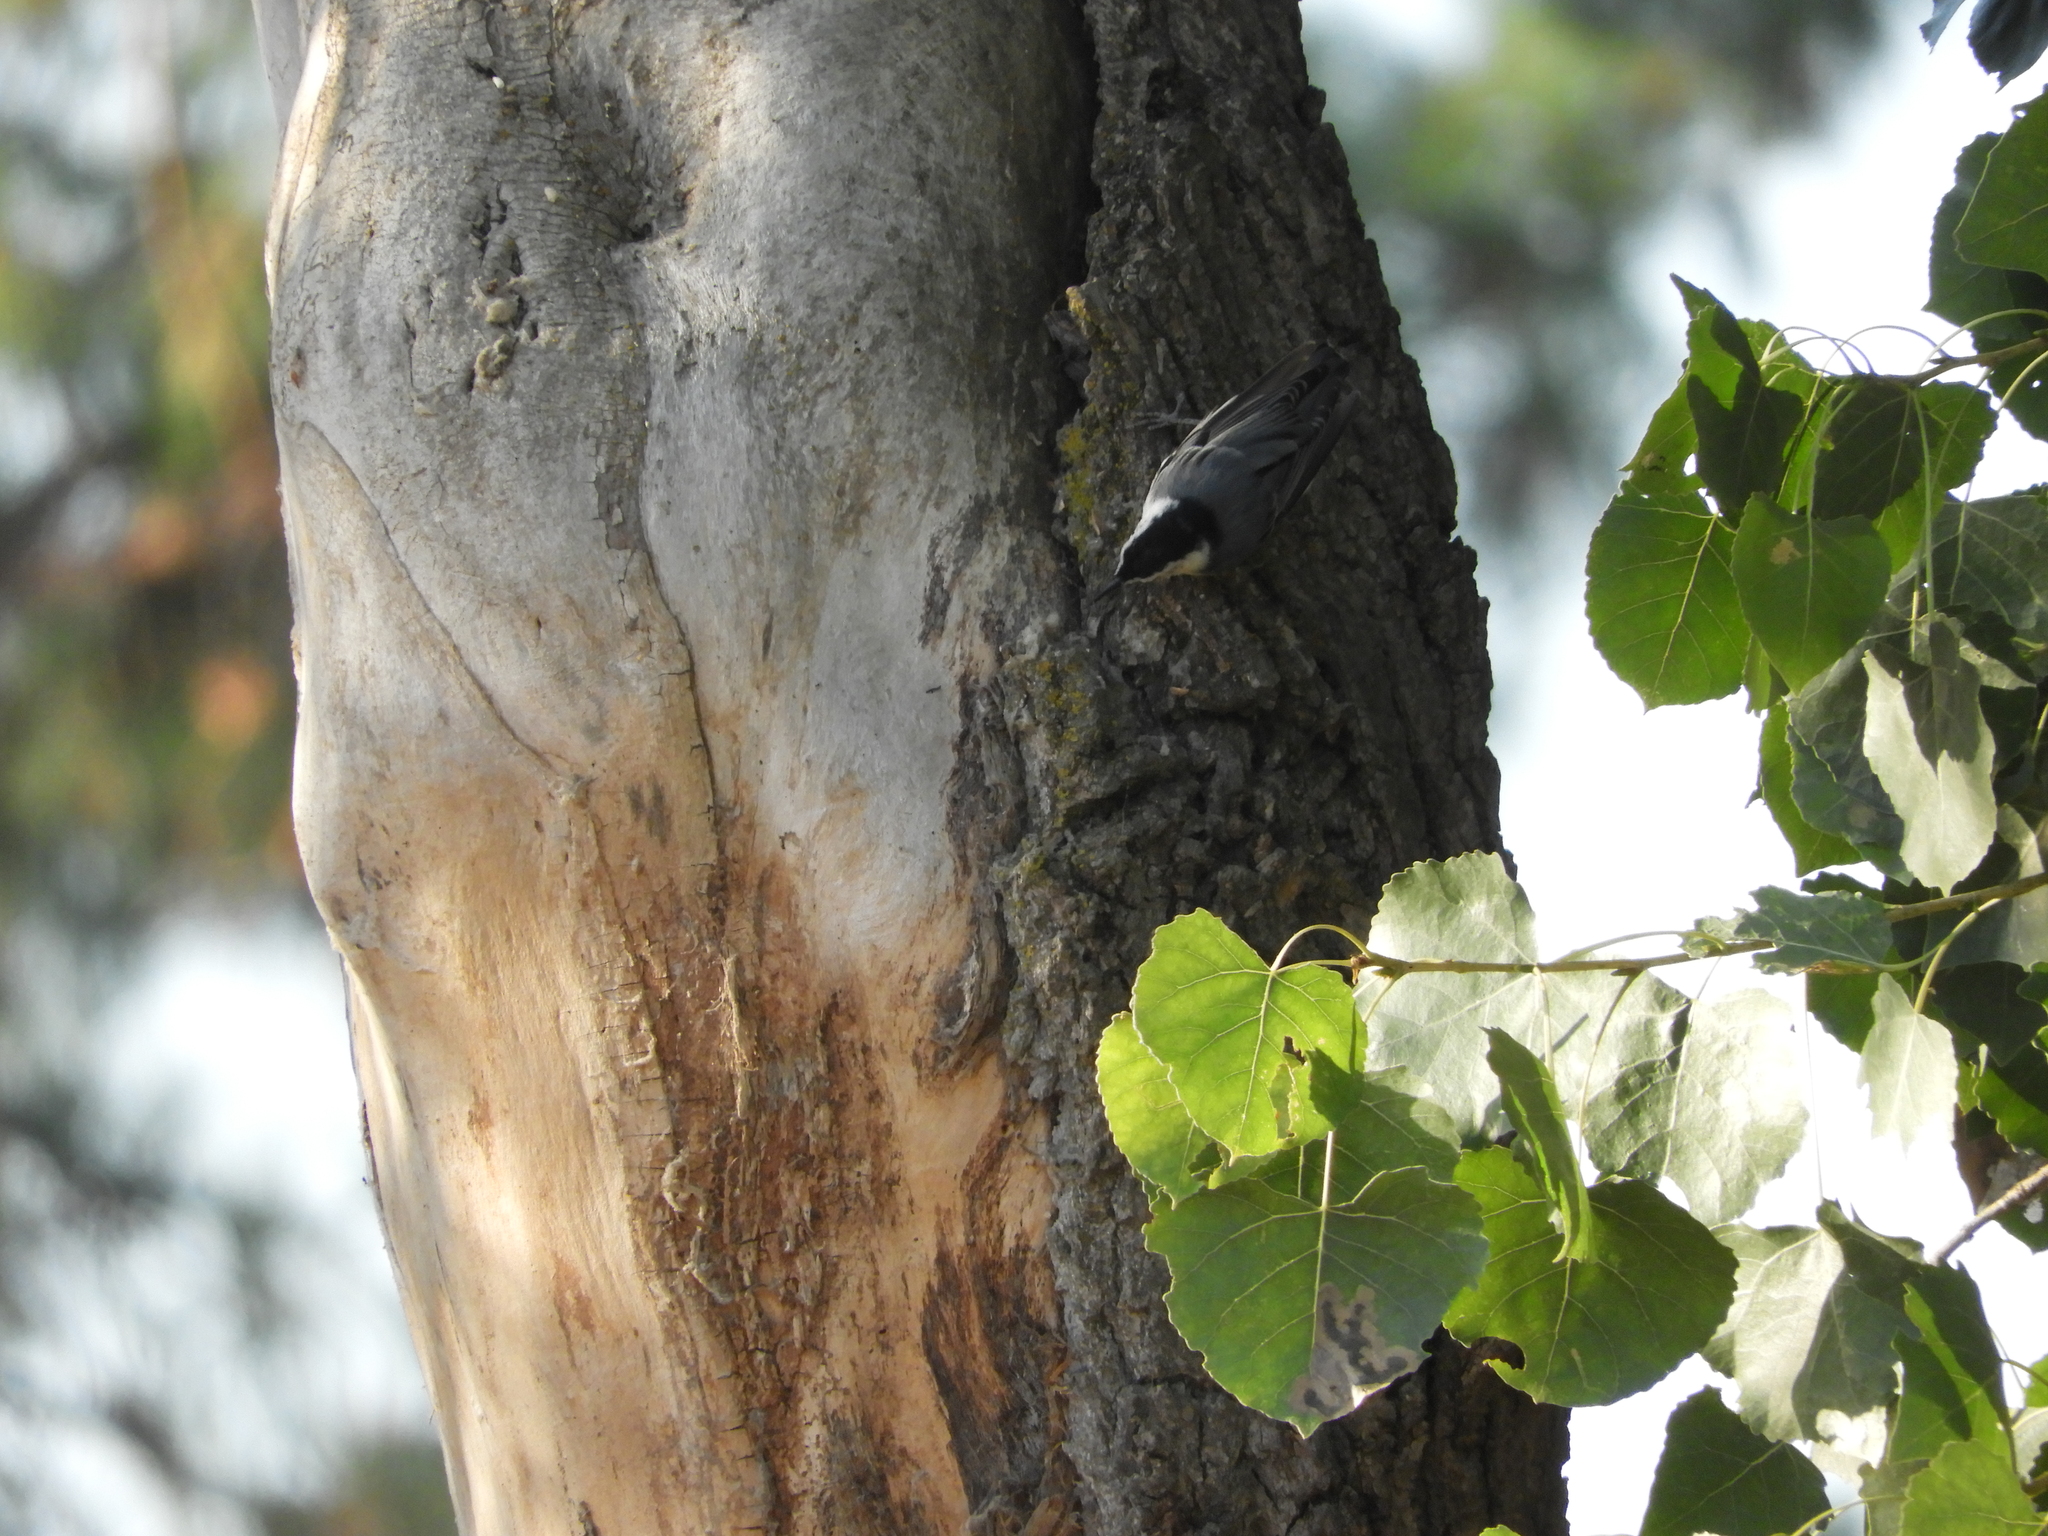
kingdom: Animalia
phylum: Chordata
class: Aves
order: Passeriformes
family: Sittidae
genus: Sitta
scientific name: Sitta carolinensis
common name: White-breasted nuthatch
